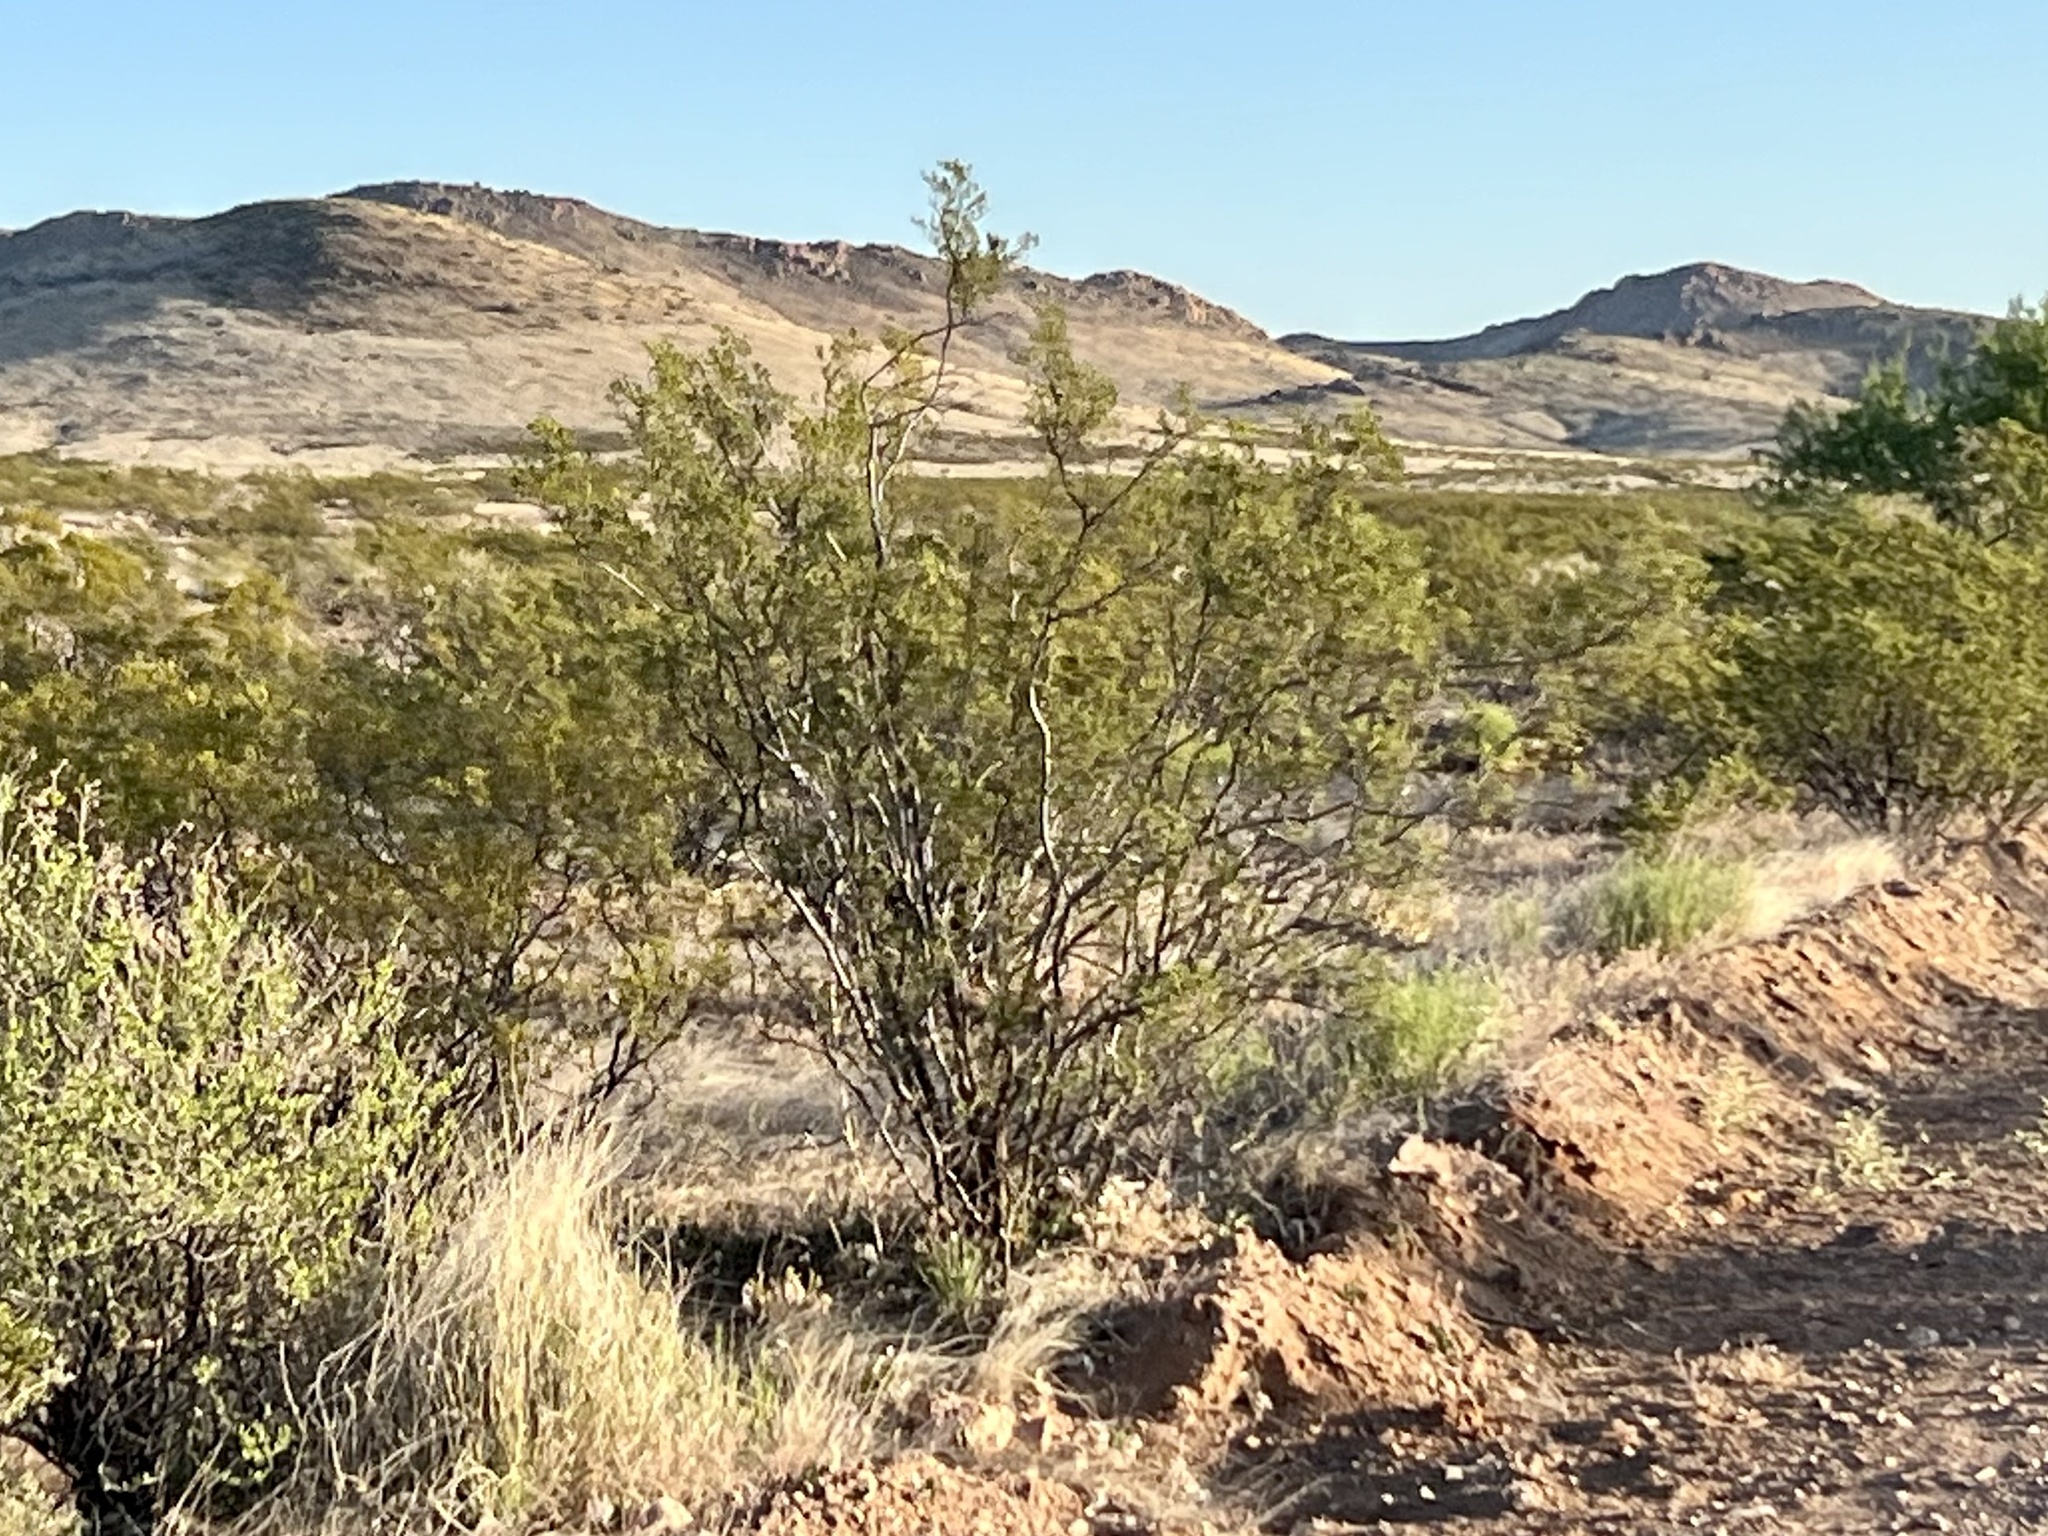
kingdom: Plantae
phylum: Tracheophyta
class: Magnoliopsida
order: Zygophyllales
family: Zygophyllaceae
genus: Larrea
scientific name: Larrea tridentata
